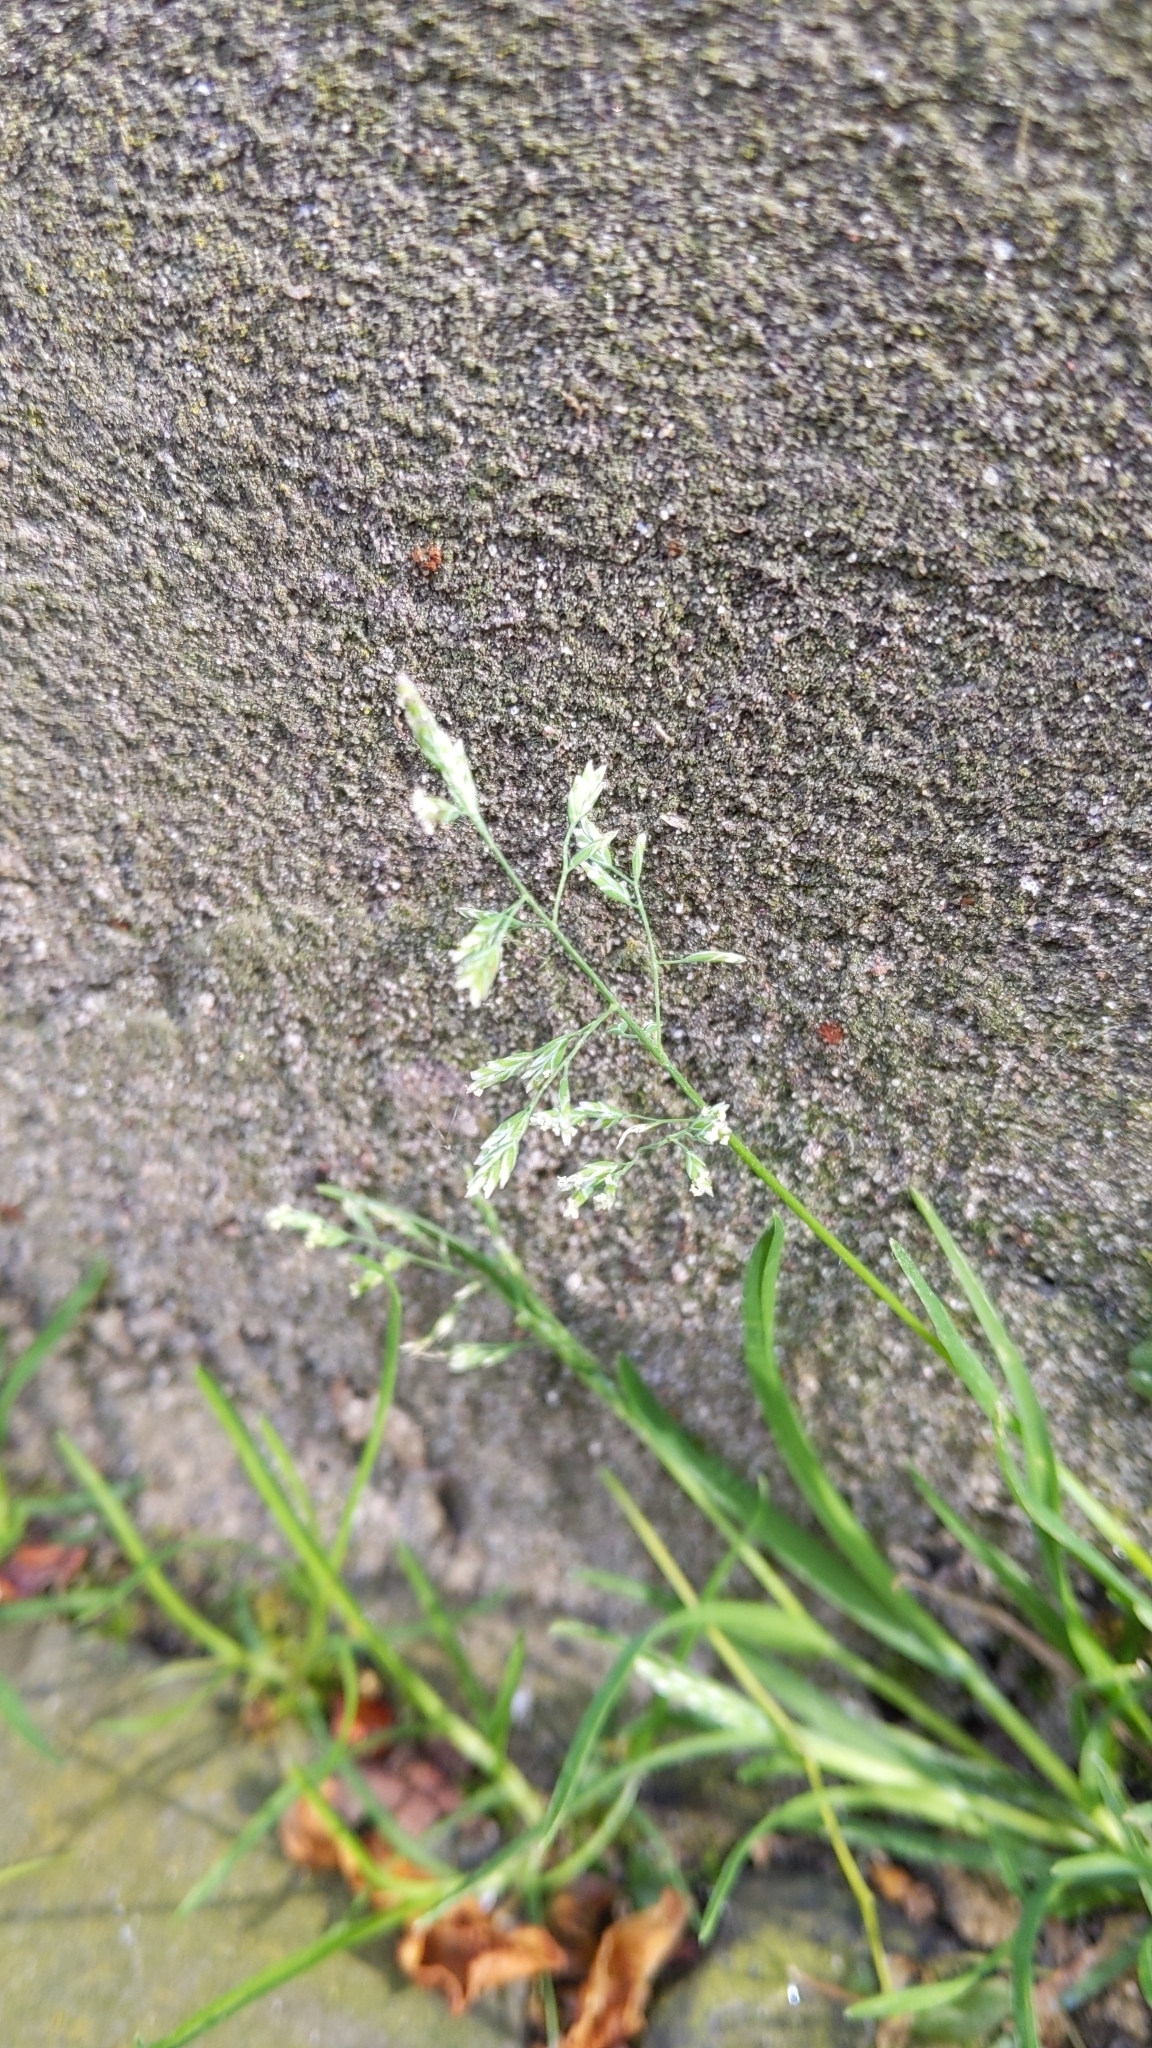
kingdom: Plantae
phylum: Tracheophyta
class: Liliopsida
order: Poales
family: Poaceae
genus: Poa
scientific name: Poa annua
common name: Annual bluegrass
